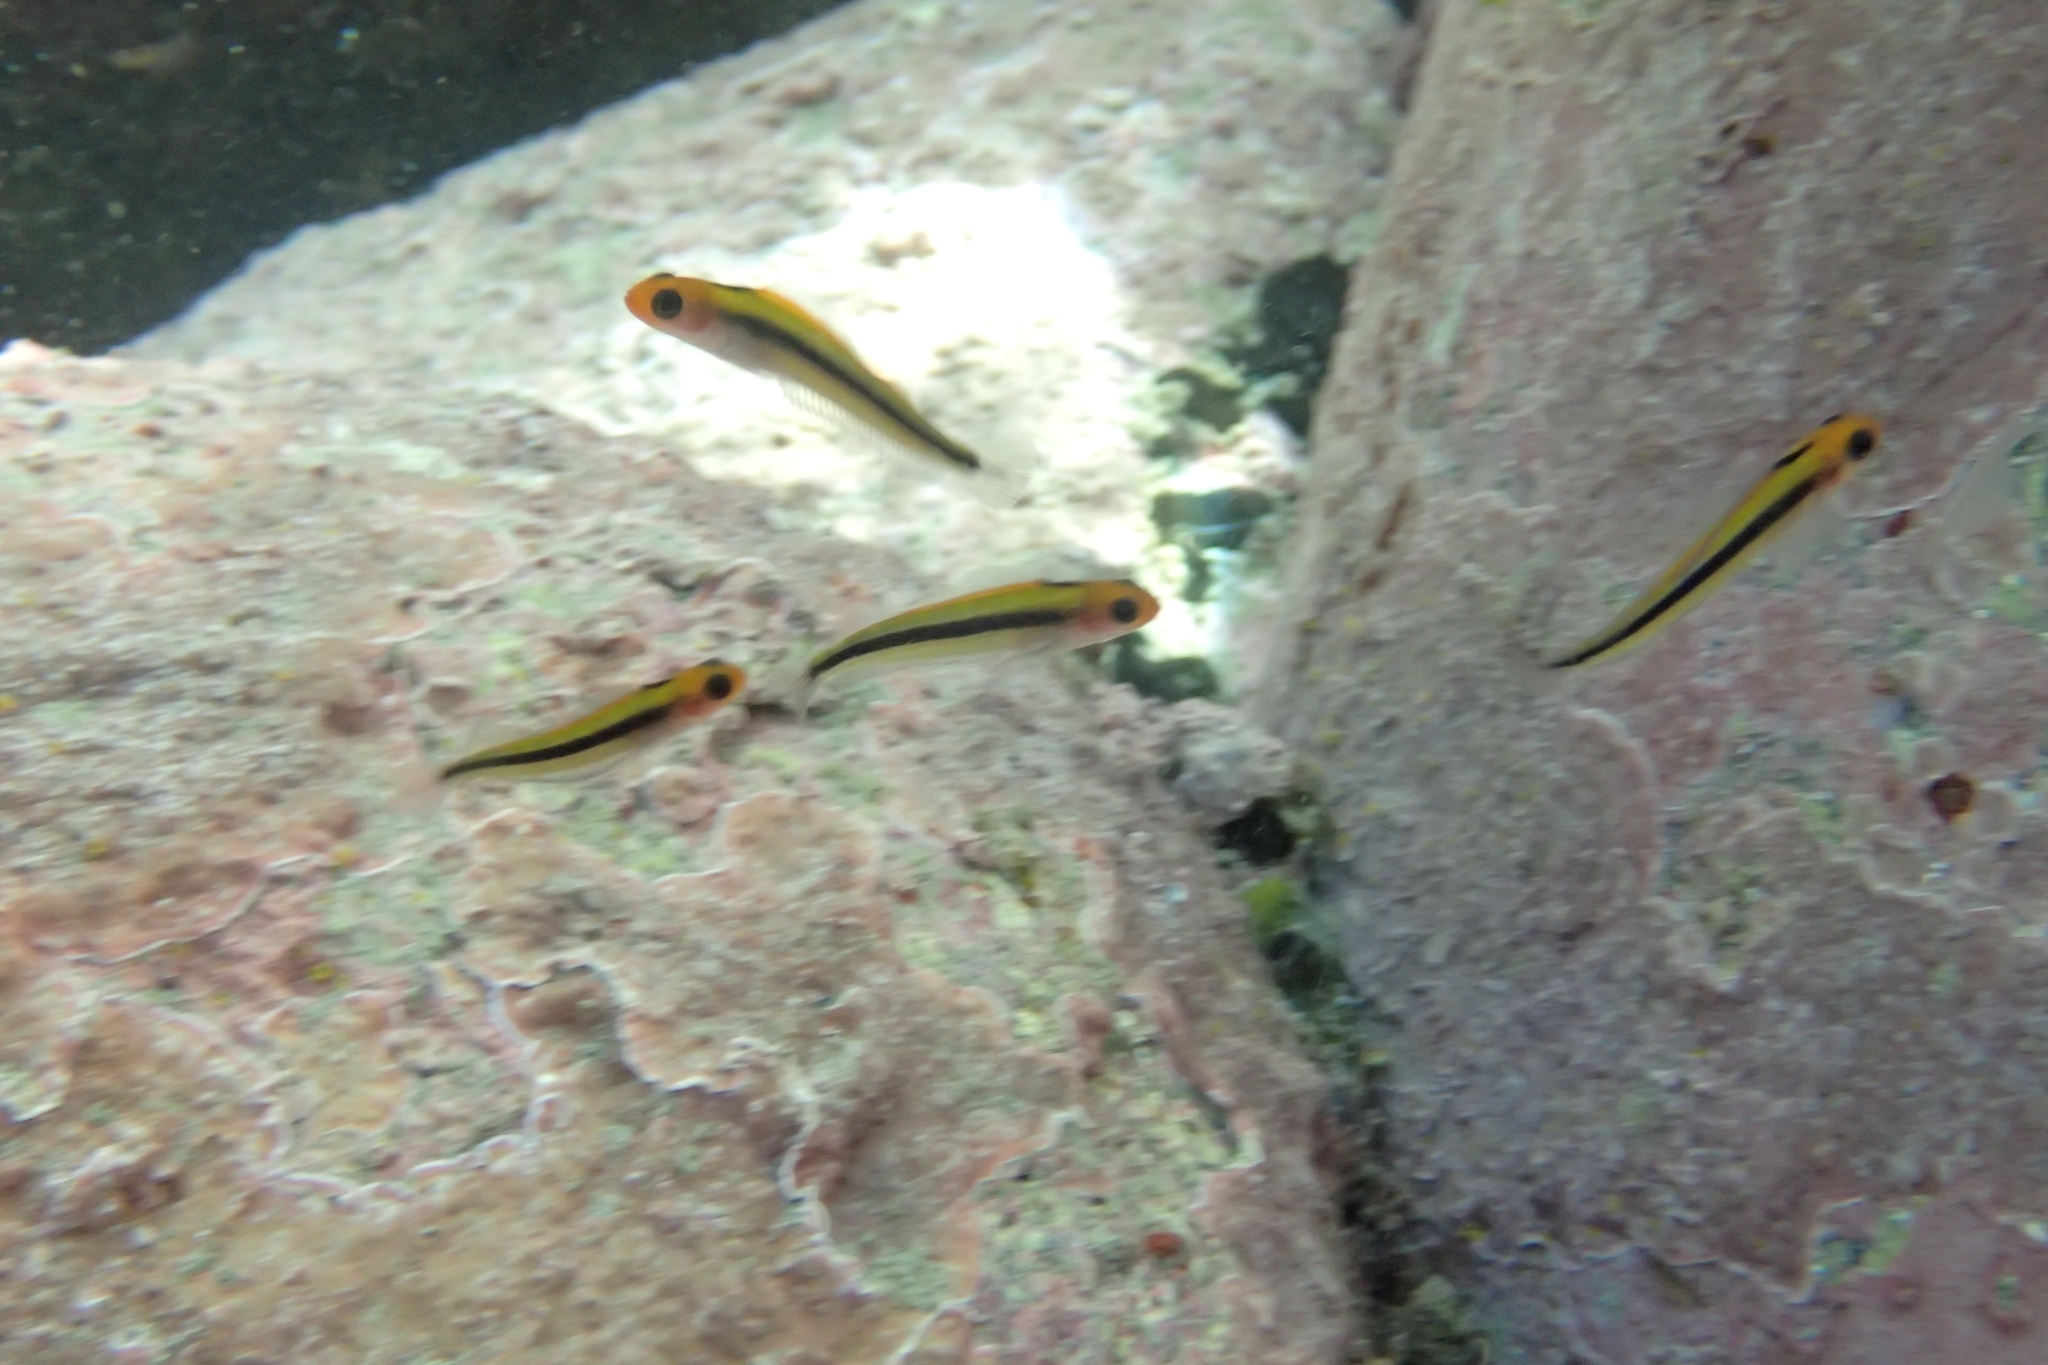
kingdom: Animalia
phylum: Chordata
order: Perciformes
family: Tripterygiidae
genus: Forsterygion
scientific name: Forsterygion maryannae
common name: Oblique-swimming triplefin
